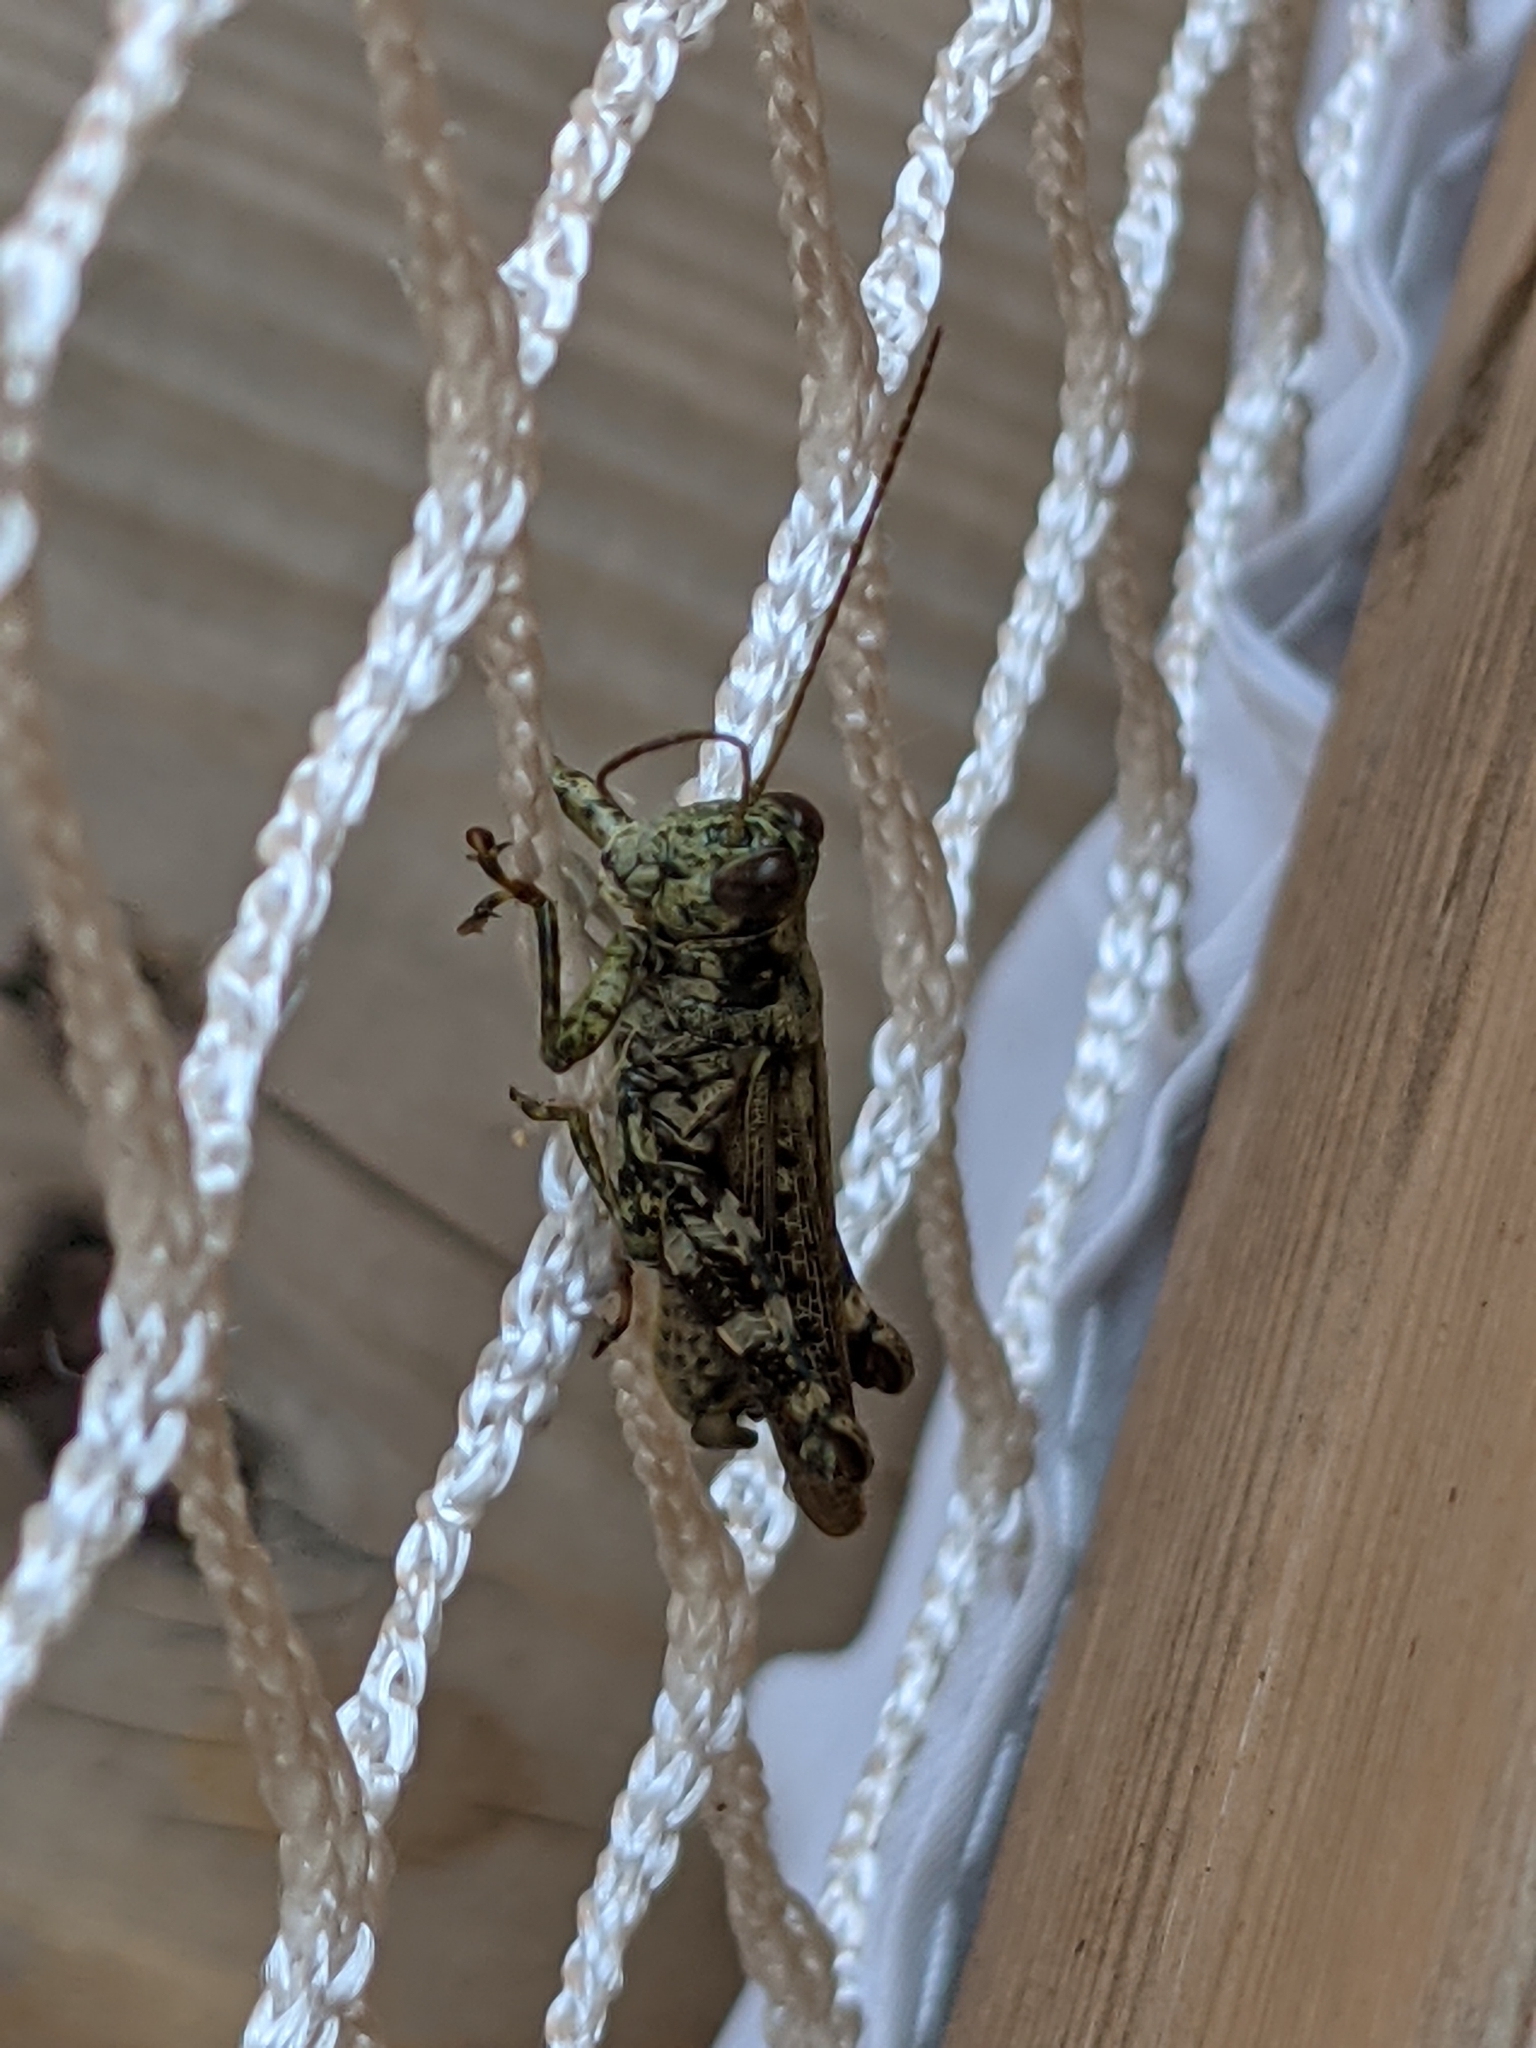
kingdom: Animalia
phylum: Arthropoda
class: Insecta
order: Orthoptera
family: Acrididae
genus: Melanoplus
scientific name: Melanoplus punctulatus
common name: Pine-tree spur-throat grasshopper
